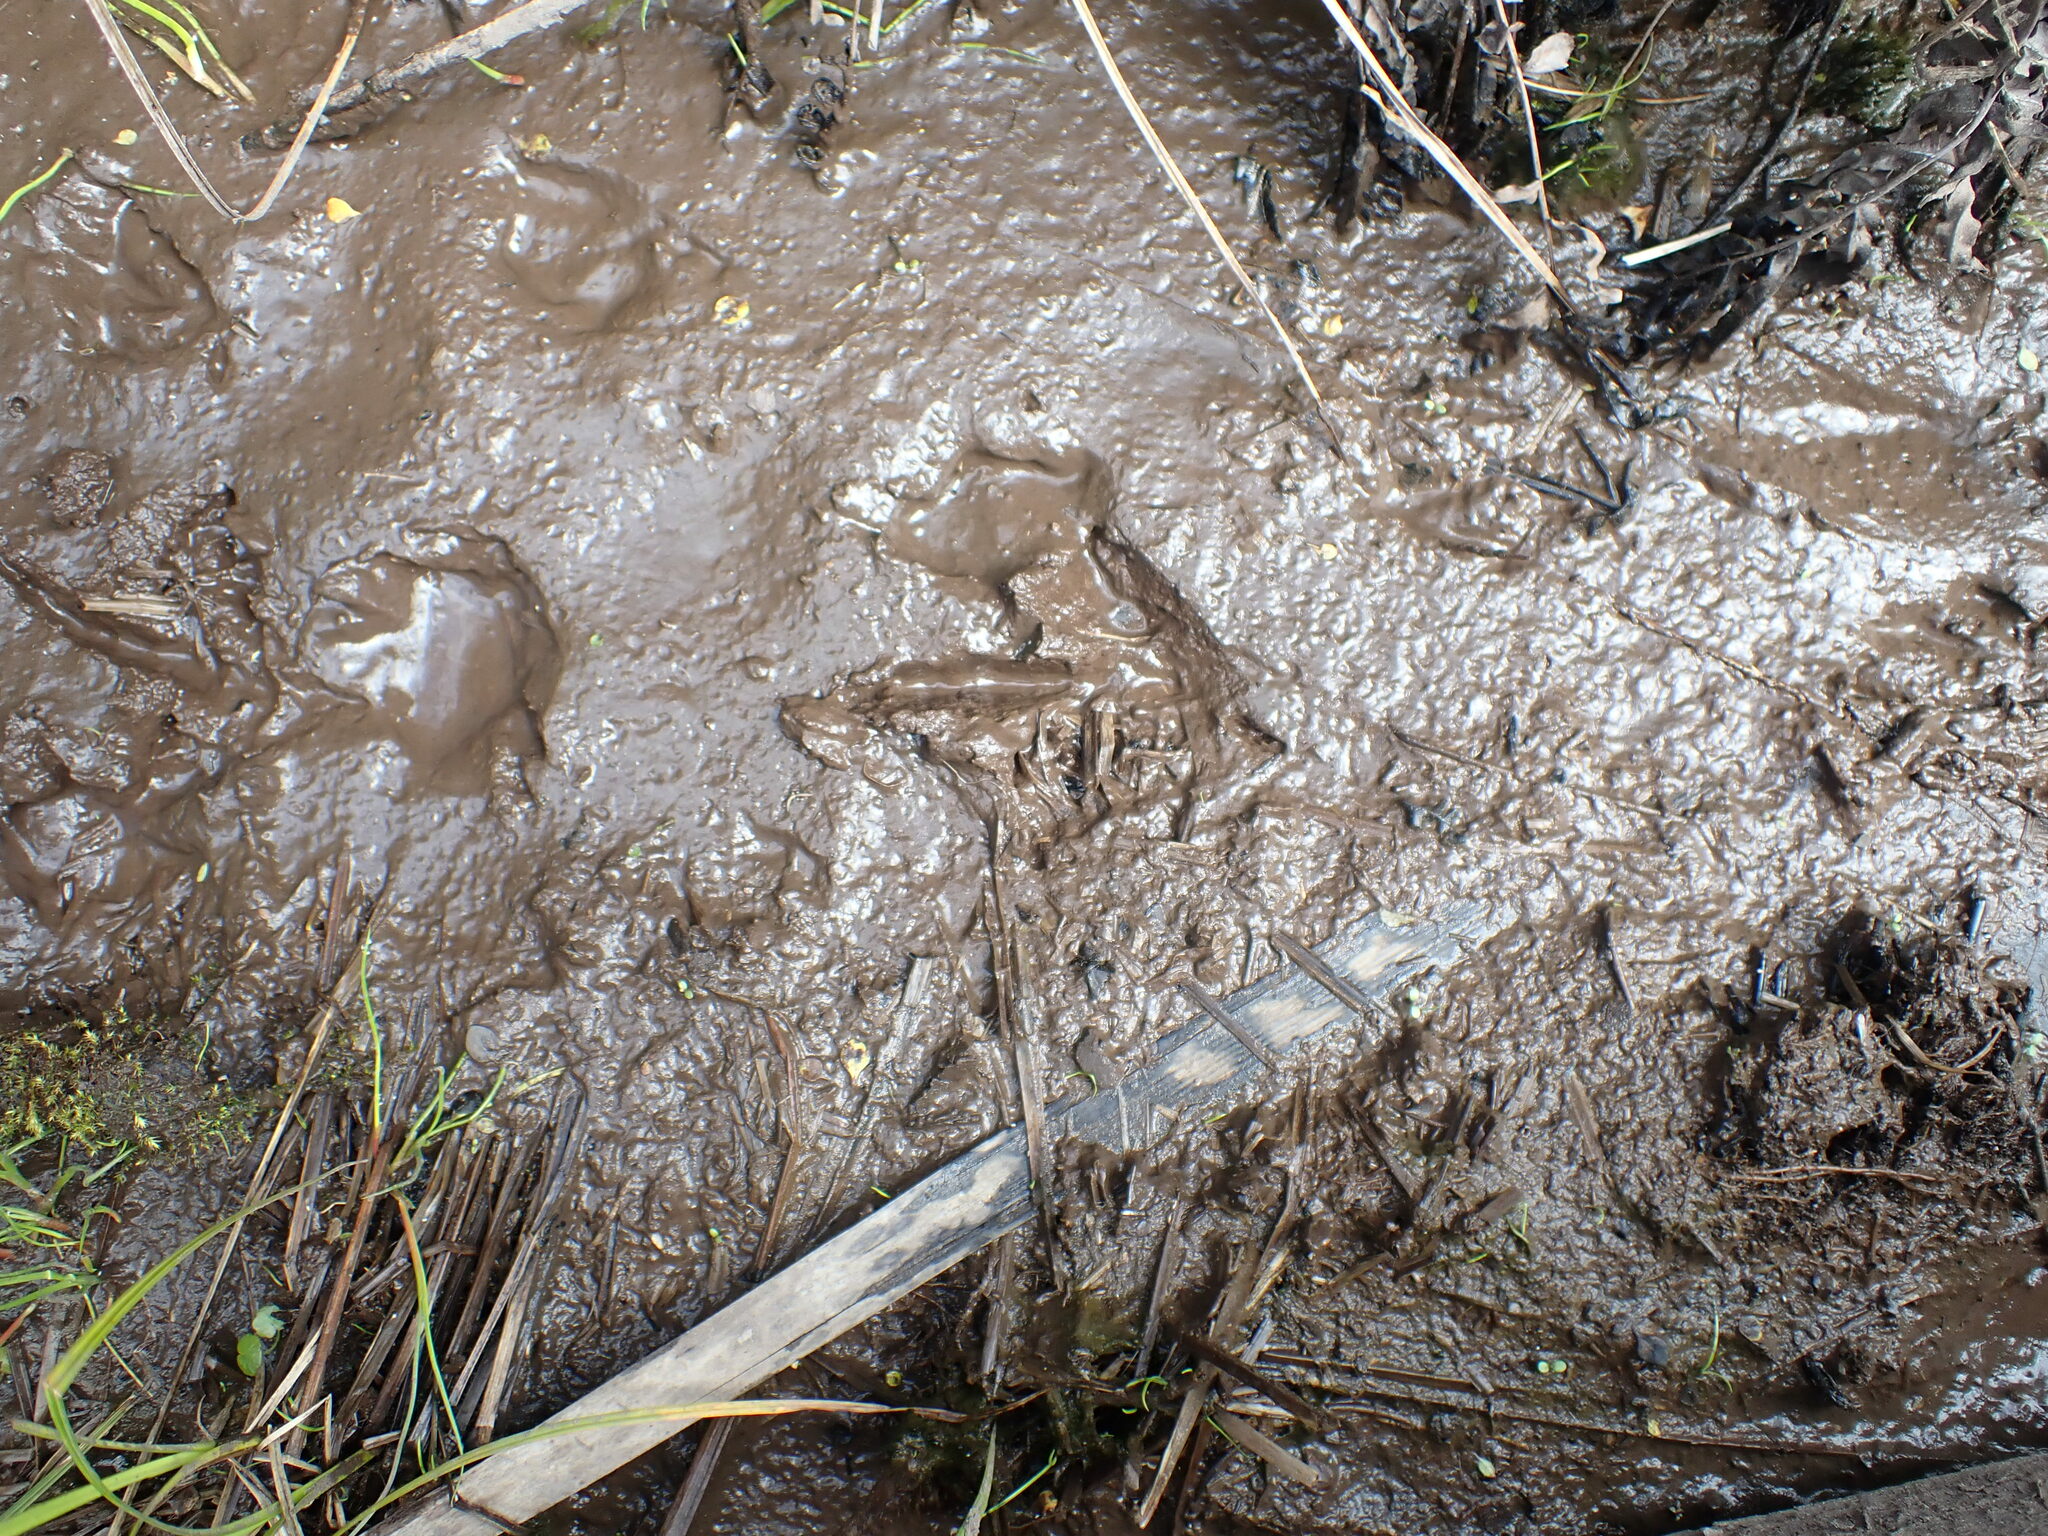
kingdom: Animalia
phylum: Chordata
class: Aves
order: Apterygiformes
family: Apterygidae
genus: Apteryx
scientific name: Apteryx mantelli
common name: North island brown kiwi
